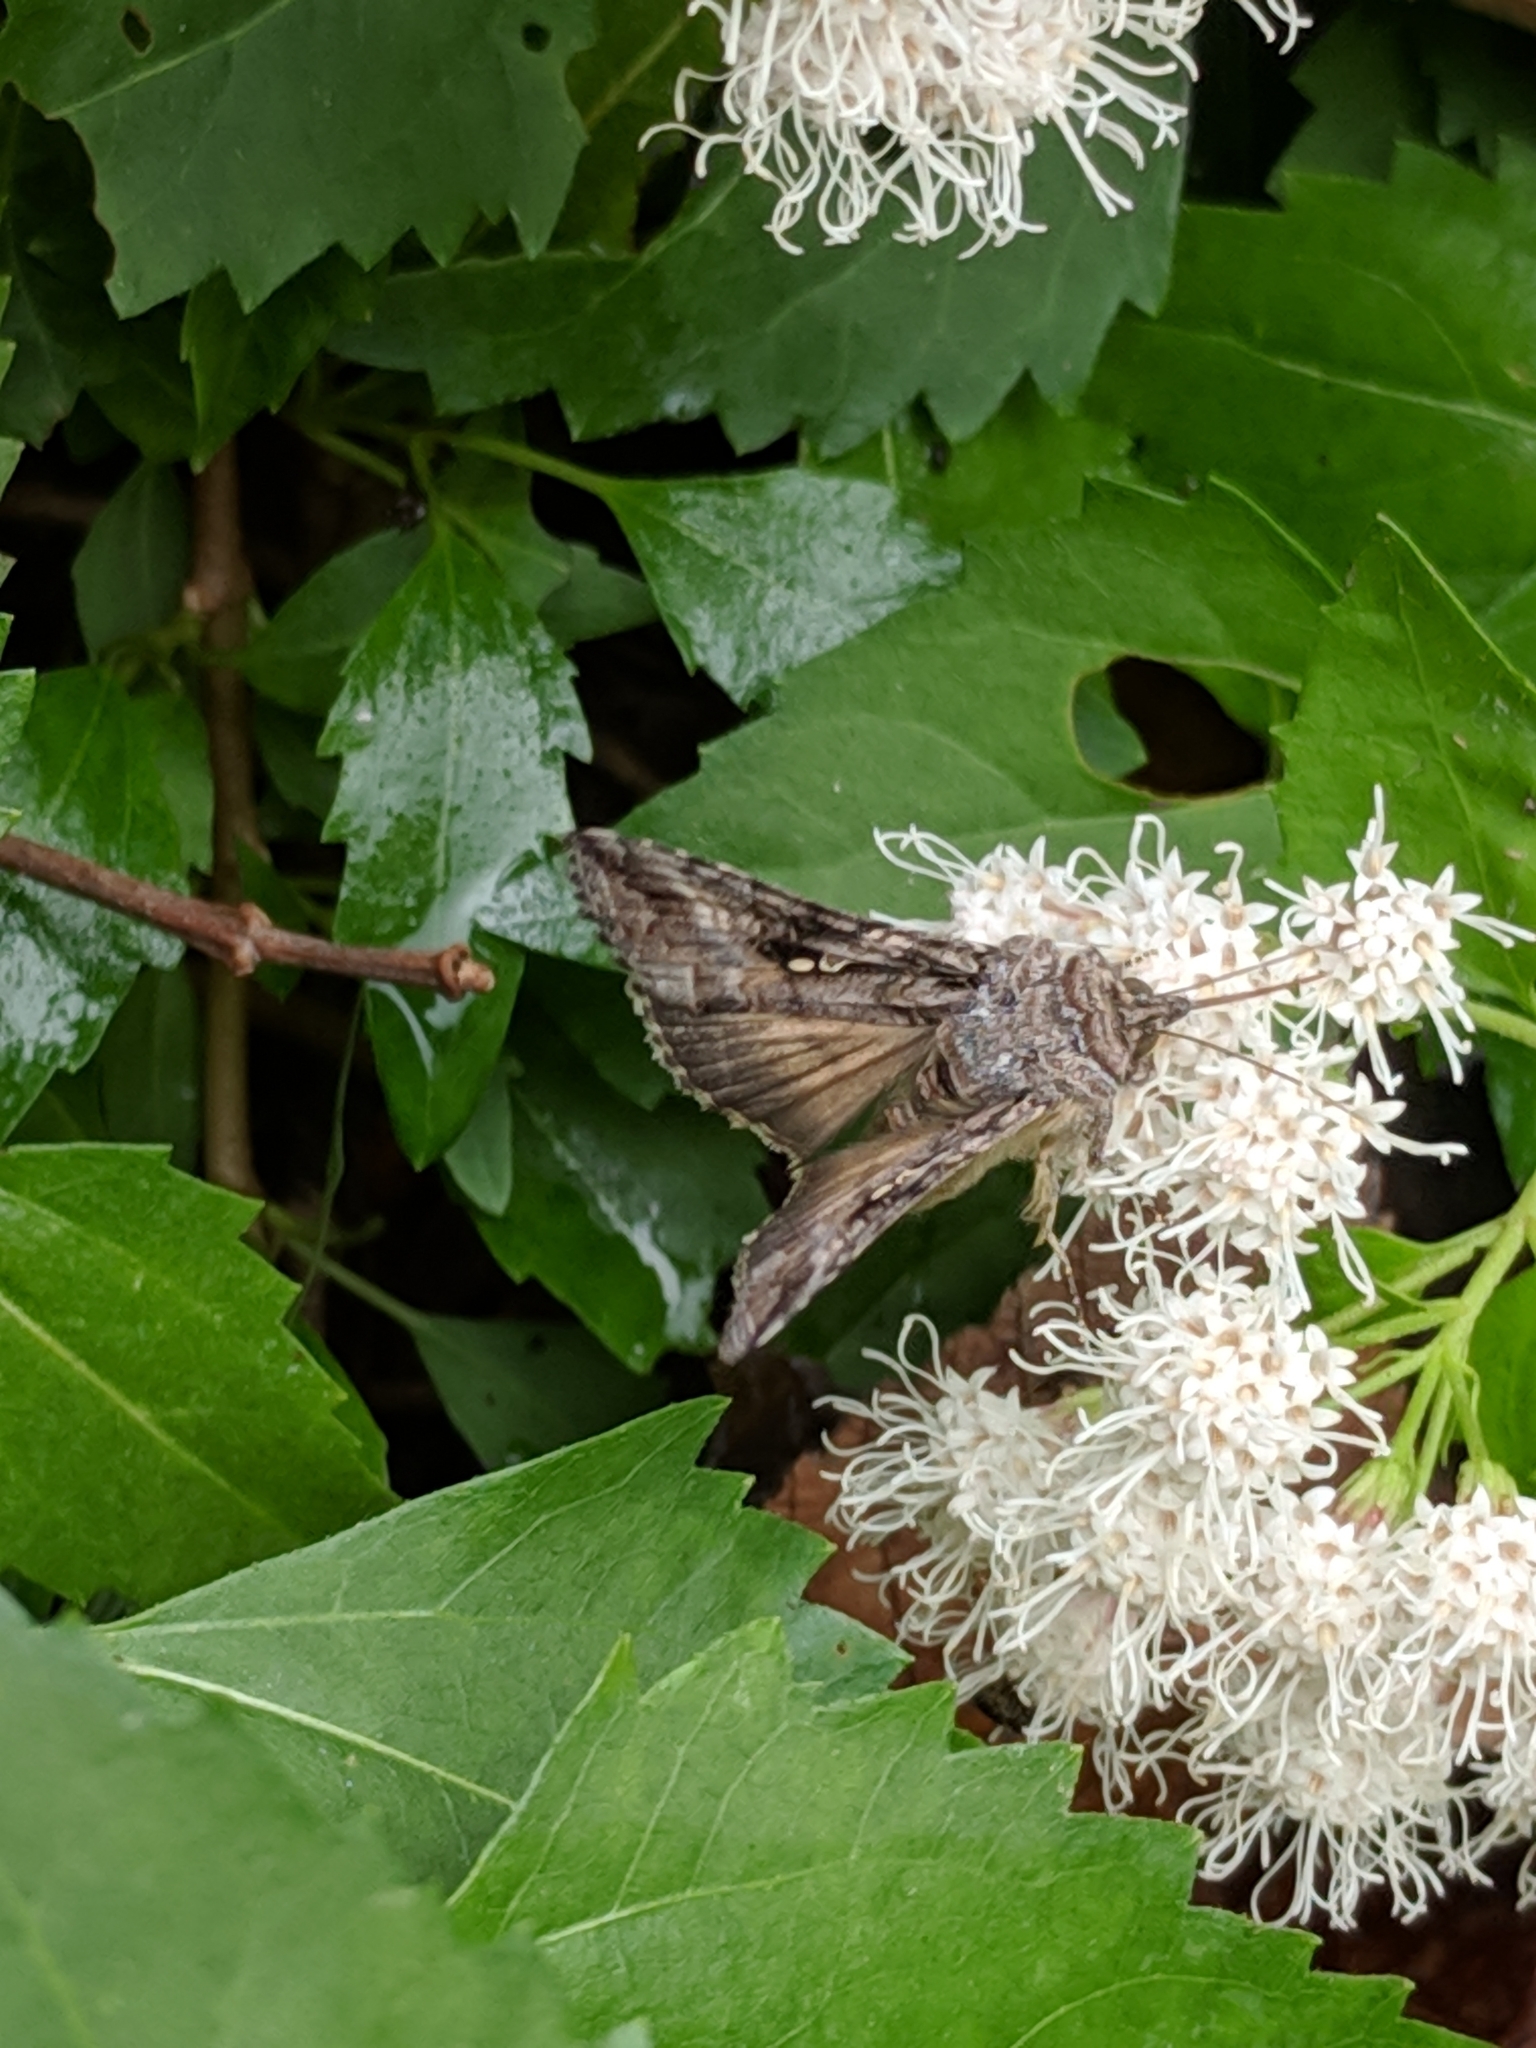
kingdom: Animalia
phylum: Arthropoda
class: Insecta
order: Lepidoptera
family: Noctuidae
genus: Rachiplusia
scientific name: Rachiplusia ou
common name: Gray looper moth
